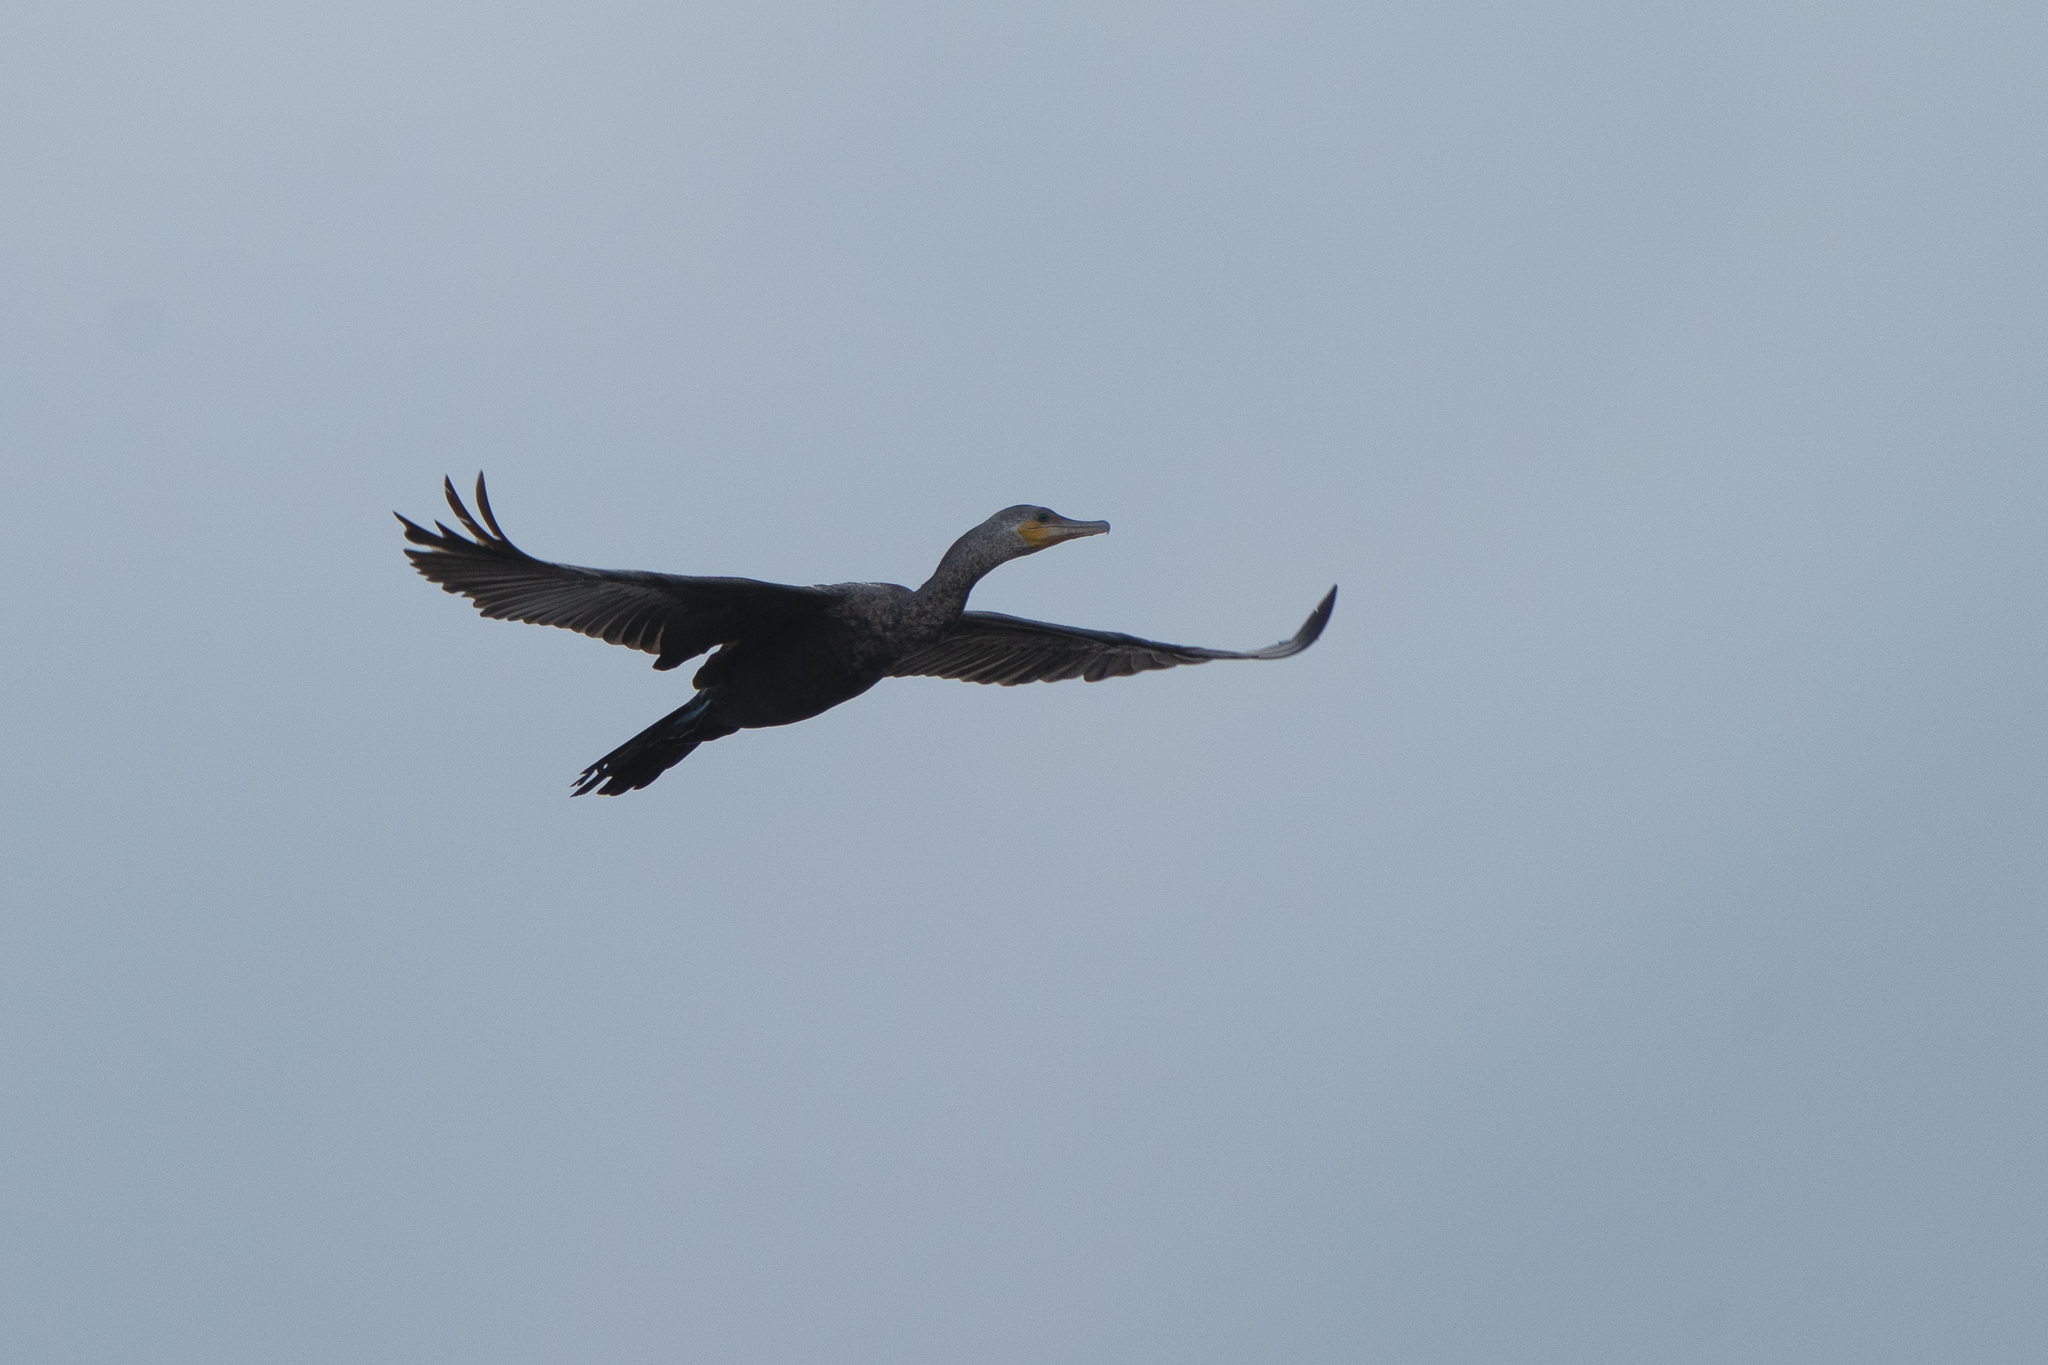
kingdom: Animalia
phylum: Chordata
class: Aves
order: Suliformes
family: Phalacrocoracidae
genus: Phalacrocorax
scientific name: Phalacrocorax brasilianus
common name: Neotropic cormorant
